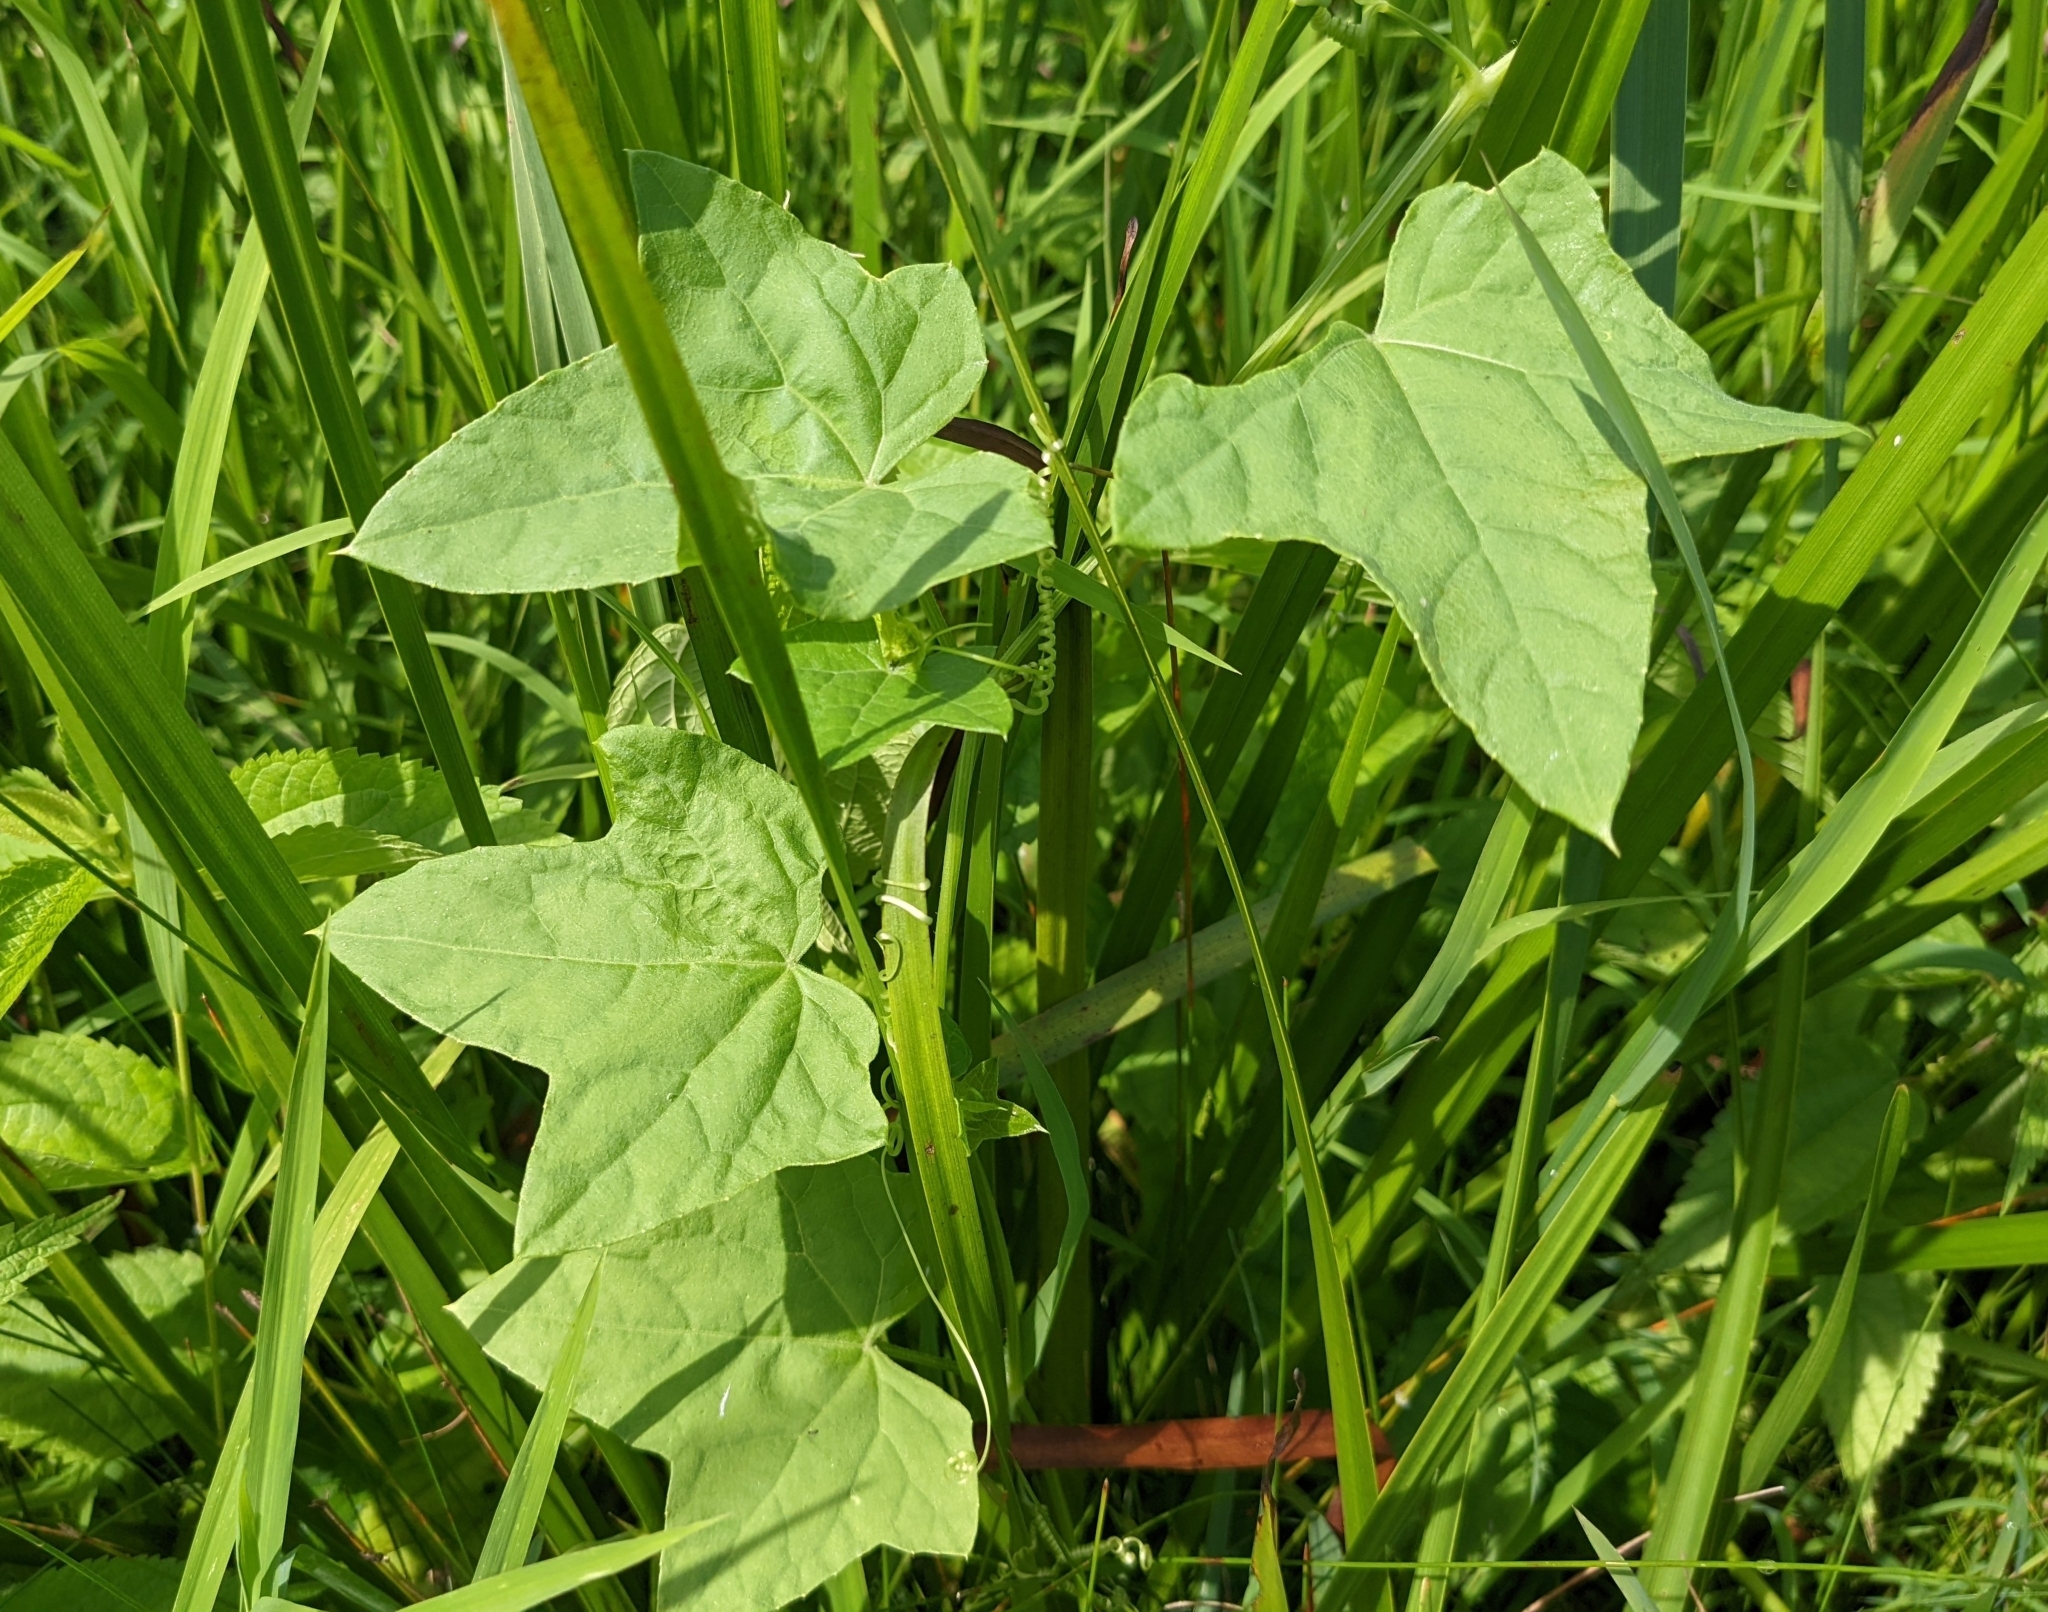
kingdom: Plantae
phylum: Tracheophyta
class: Magnoliopsida
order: Cucurbitales
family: Cucurbitaceae
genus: Echinocystis
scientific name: Echinocystis lobata
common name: Wild cucumber
